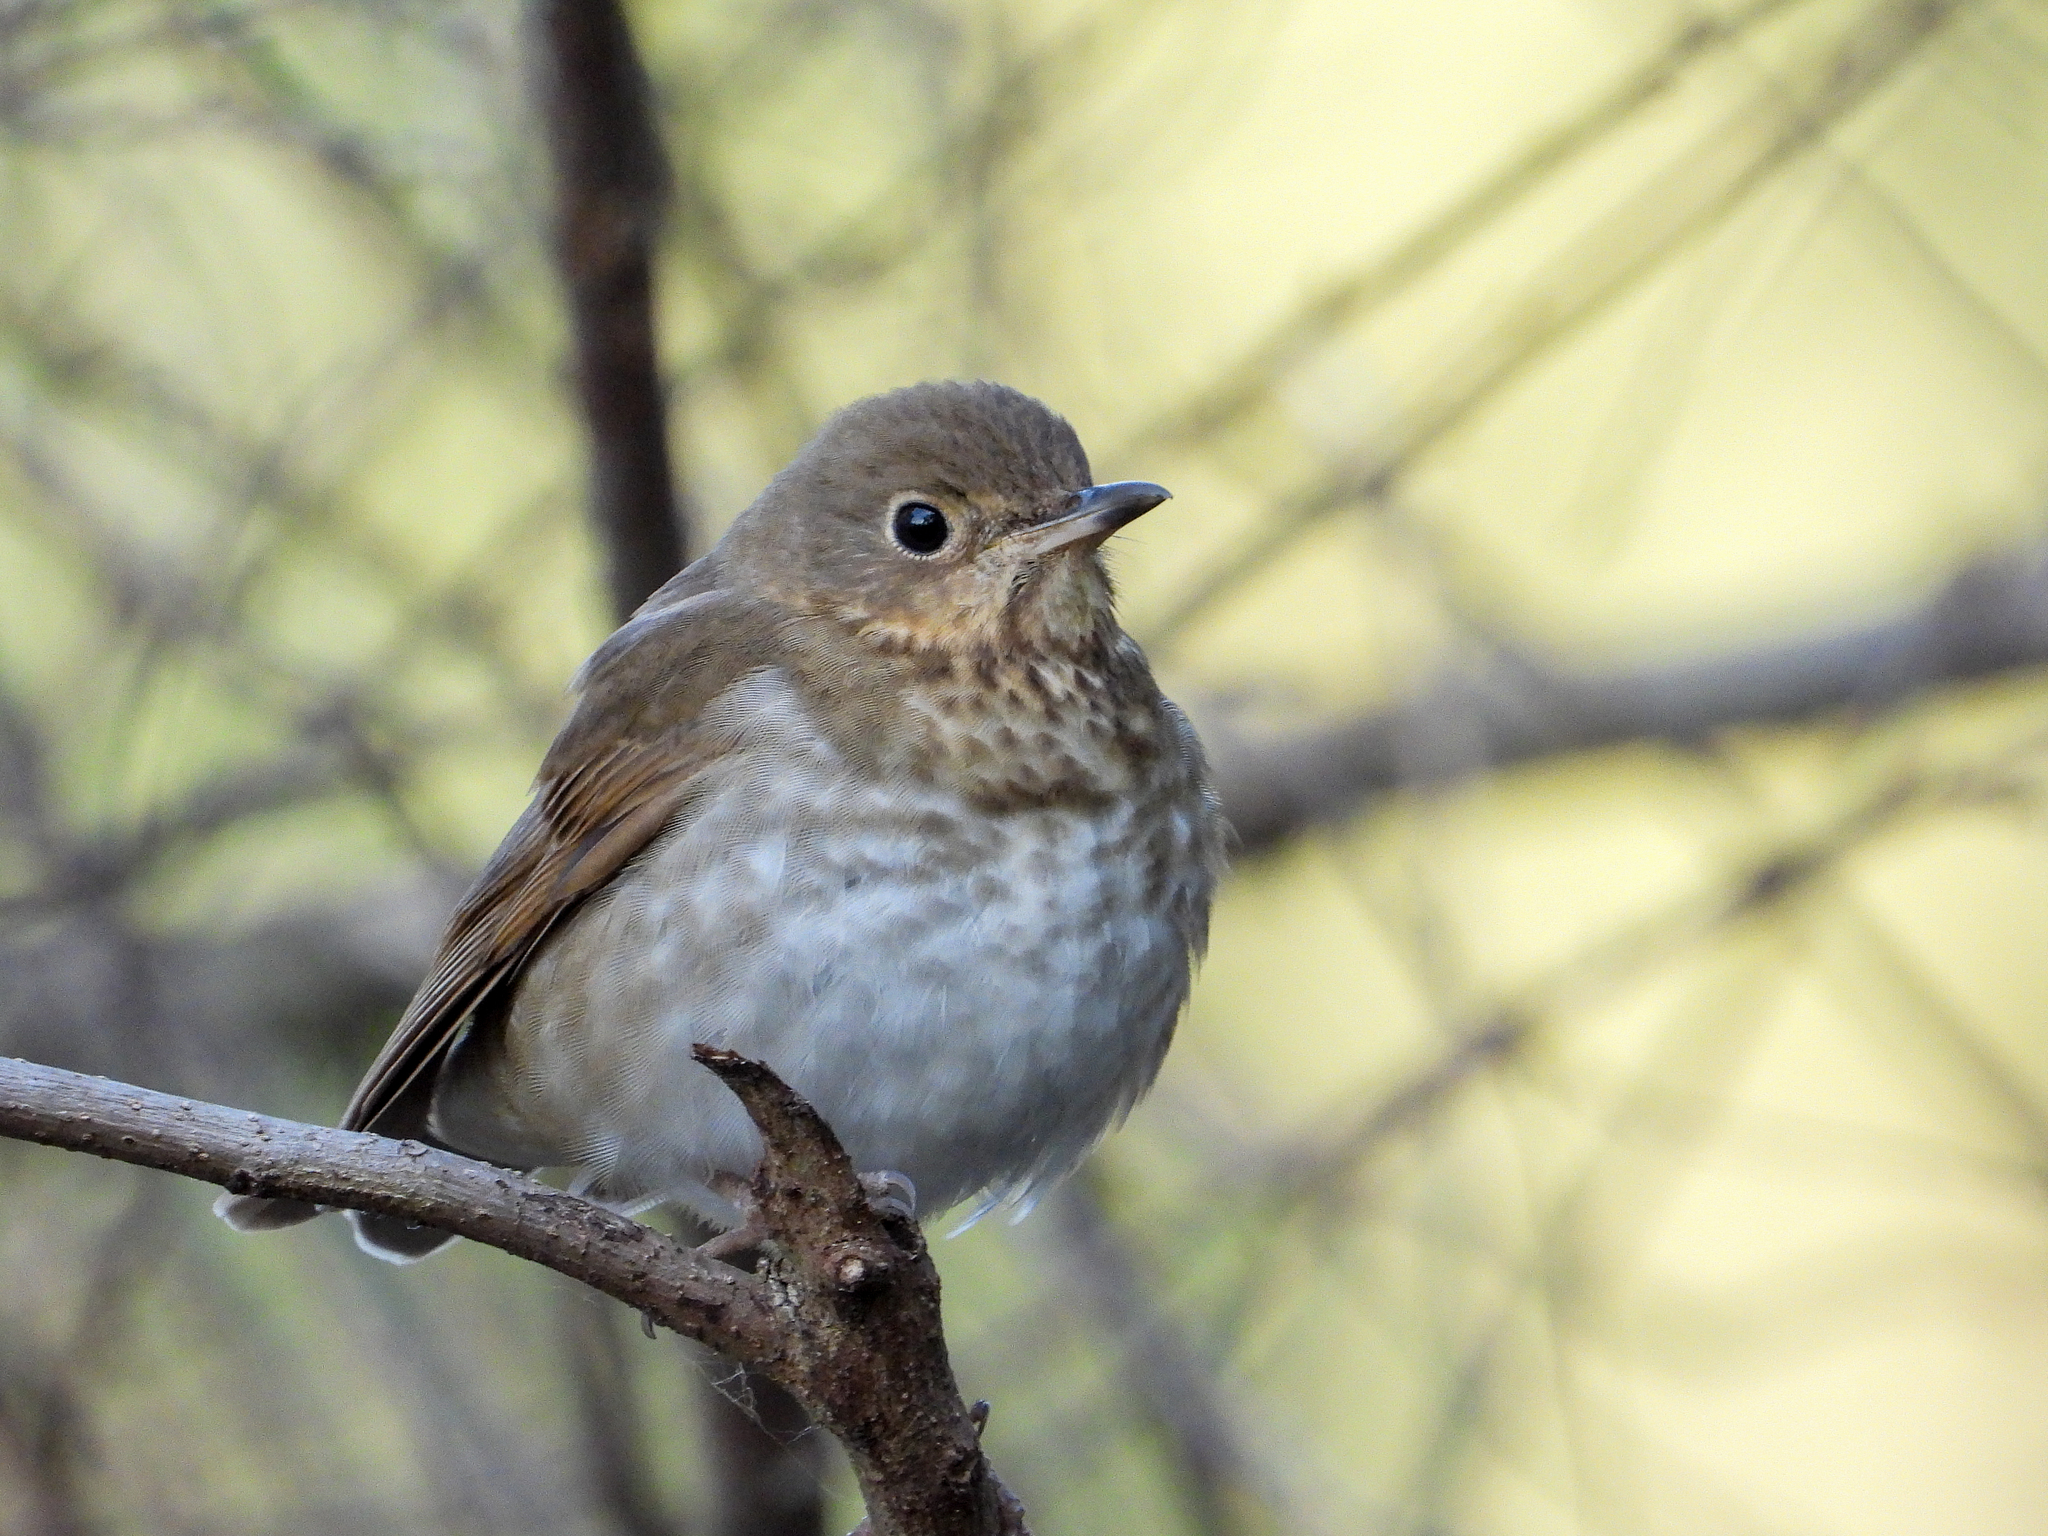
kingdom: Animalia
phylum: Chordata
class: Aves
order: Passeriformes
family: Turdidae
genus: Catharus
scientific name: Catharus ustulatus
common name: Swainson's thrush
